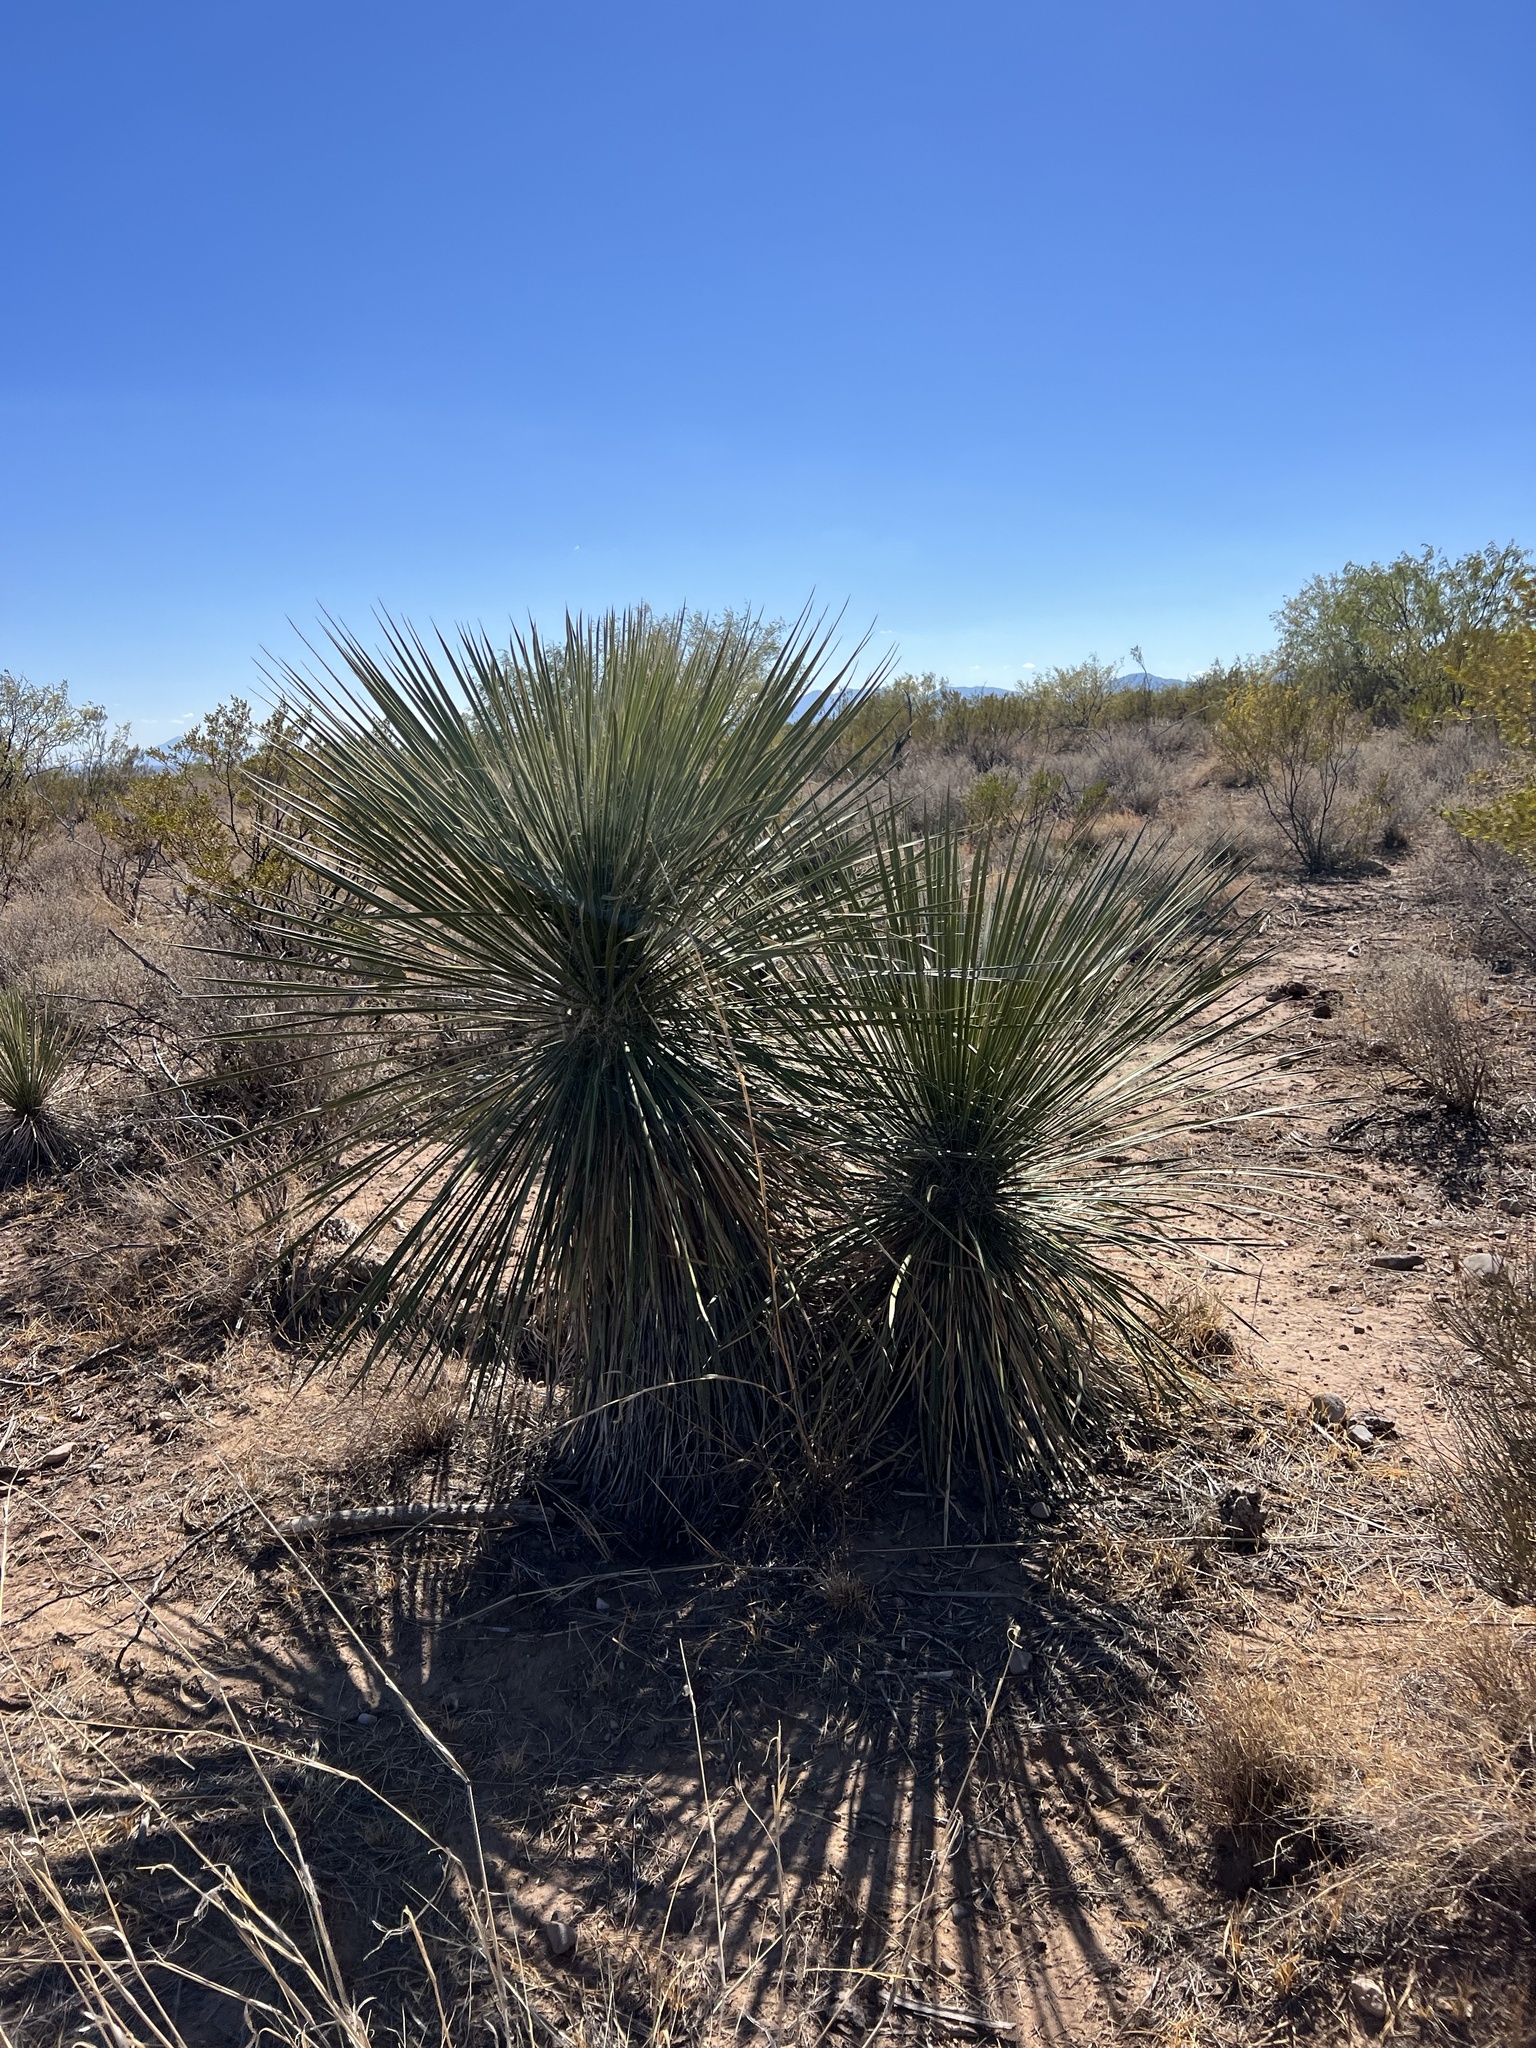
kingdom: Plantae
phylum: Tracheophyta
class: Liliopsida
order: Asparagales
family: Asparagaceae
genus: Yucca
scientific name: Yucca elata
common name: Palmella
